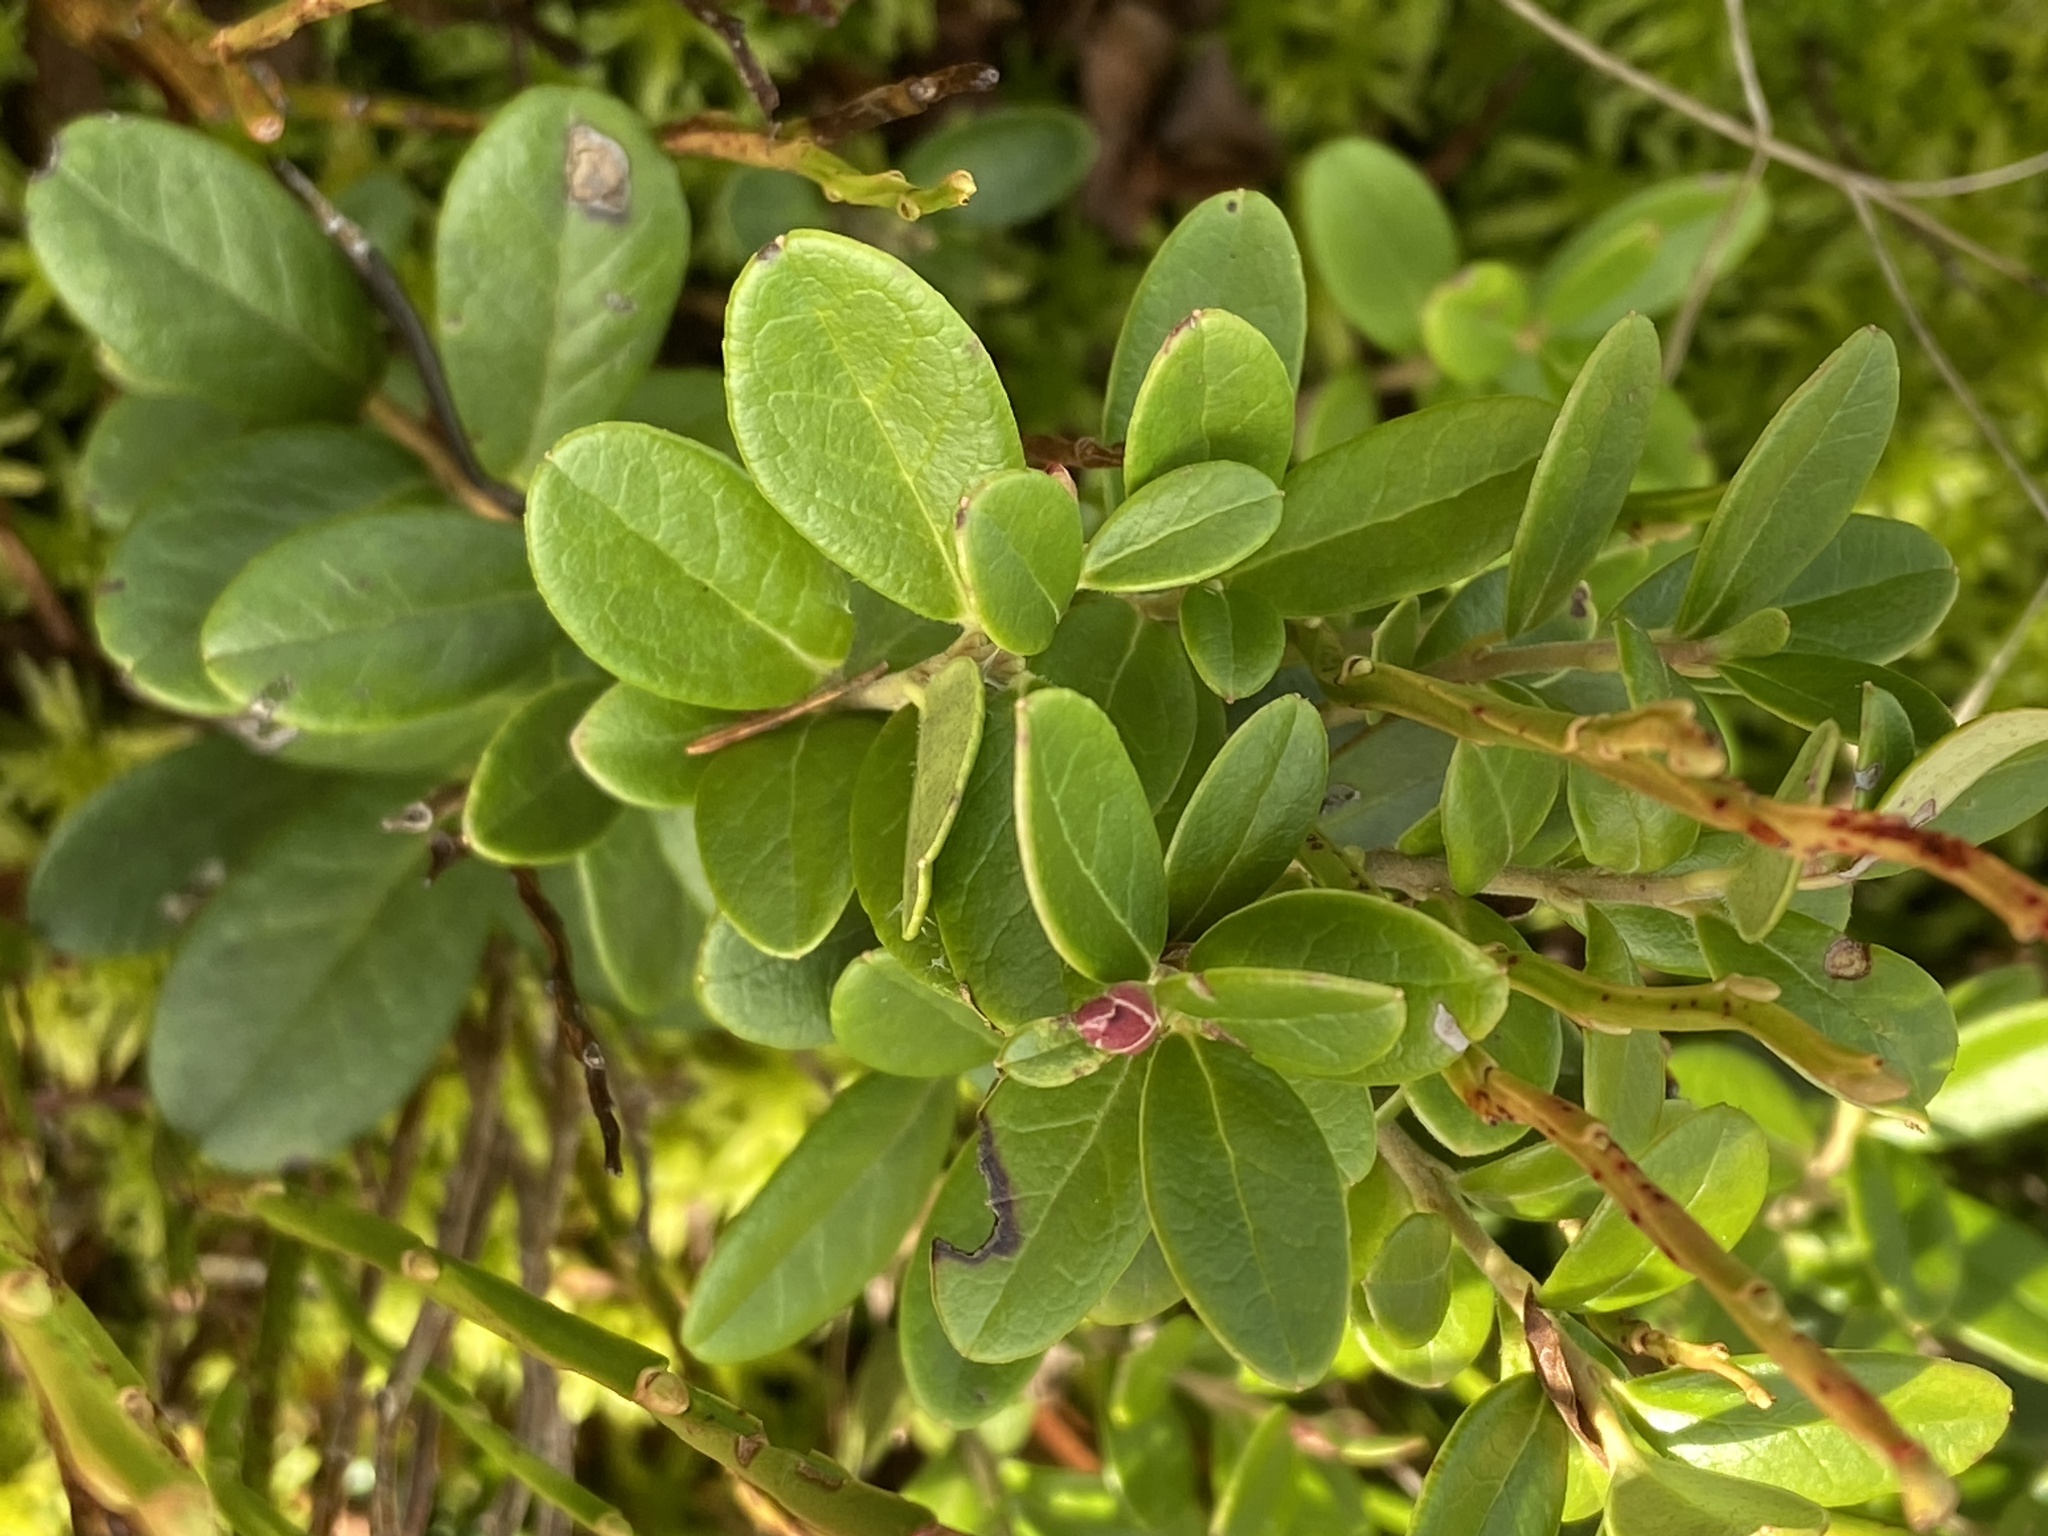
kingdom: Plantae
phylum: Tracheophyta
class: Magnoliopsida
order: Ericales
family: Ericaceae
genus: Vaccinium
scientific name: Vaccinium vitis-idaea
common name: Cowberry
